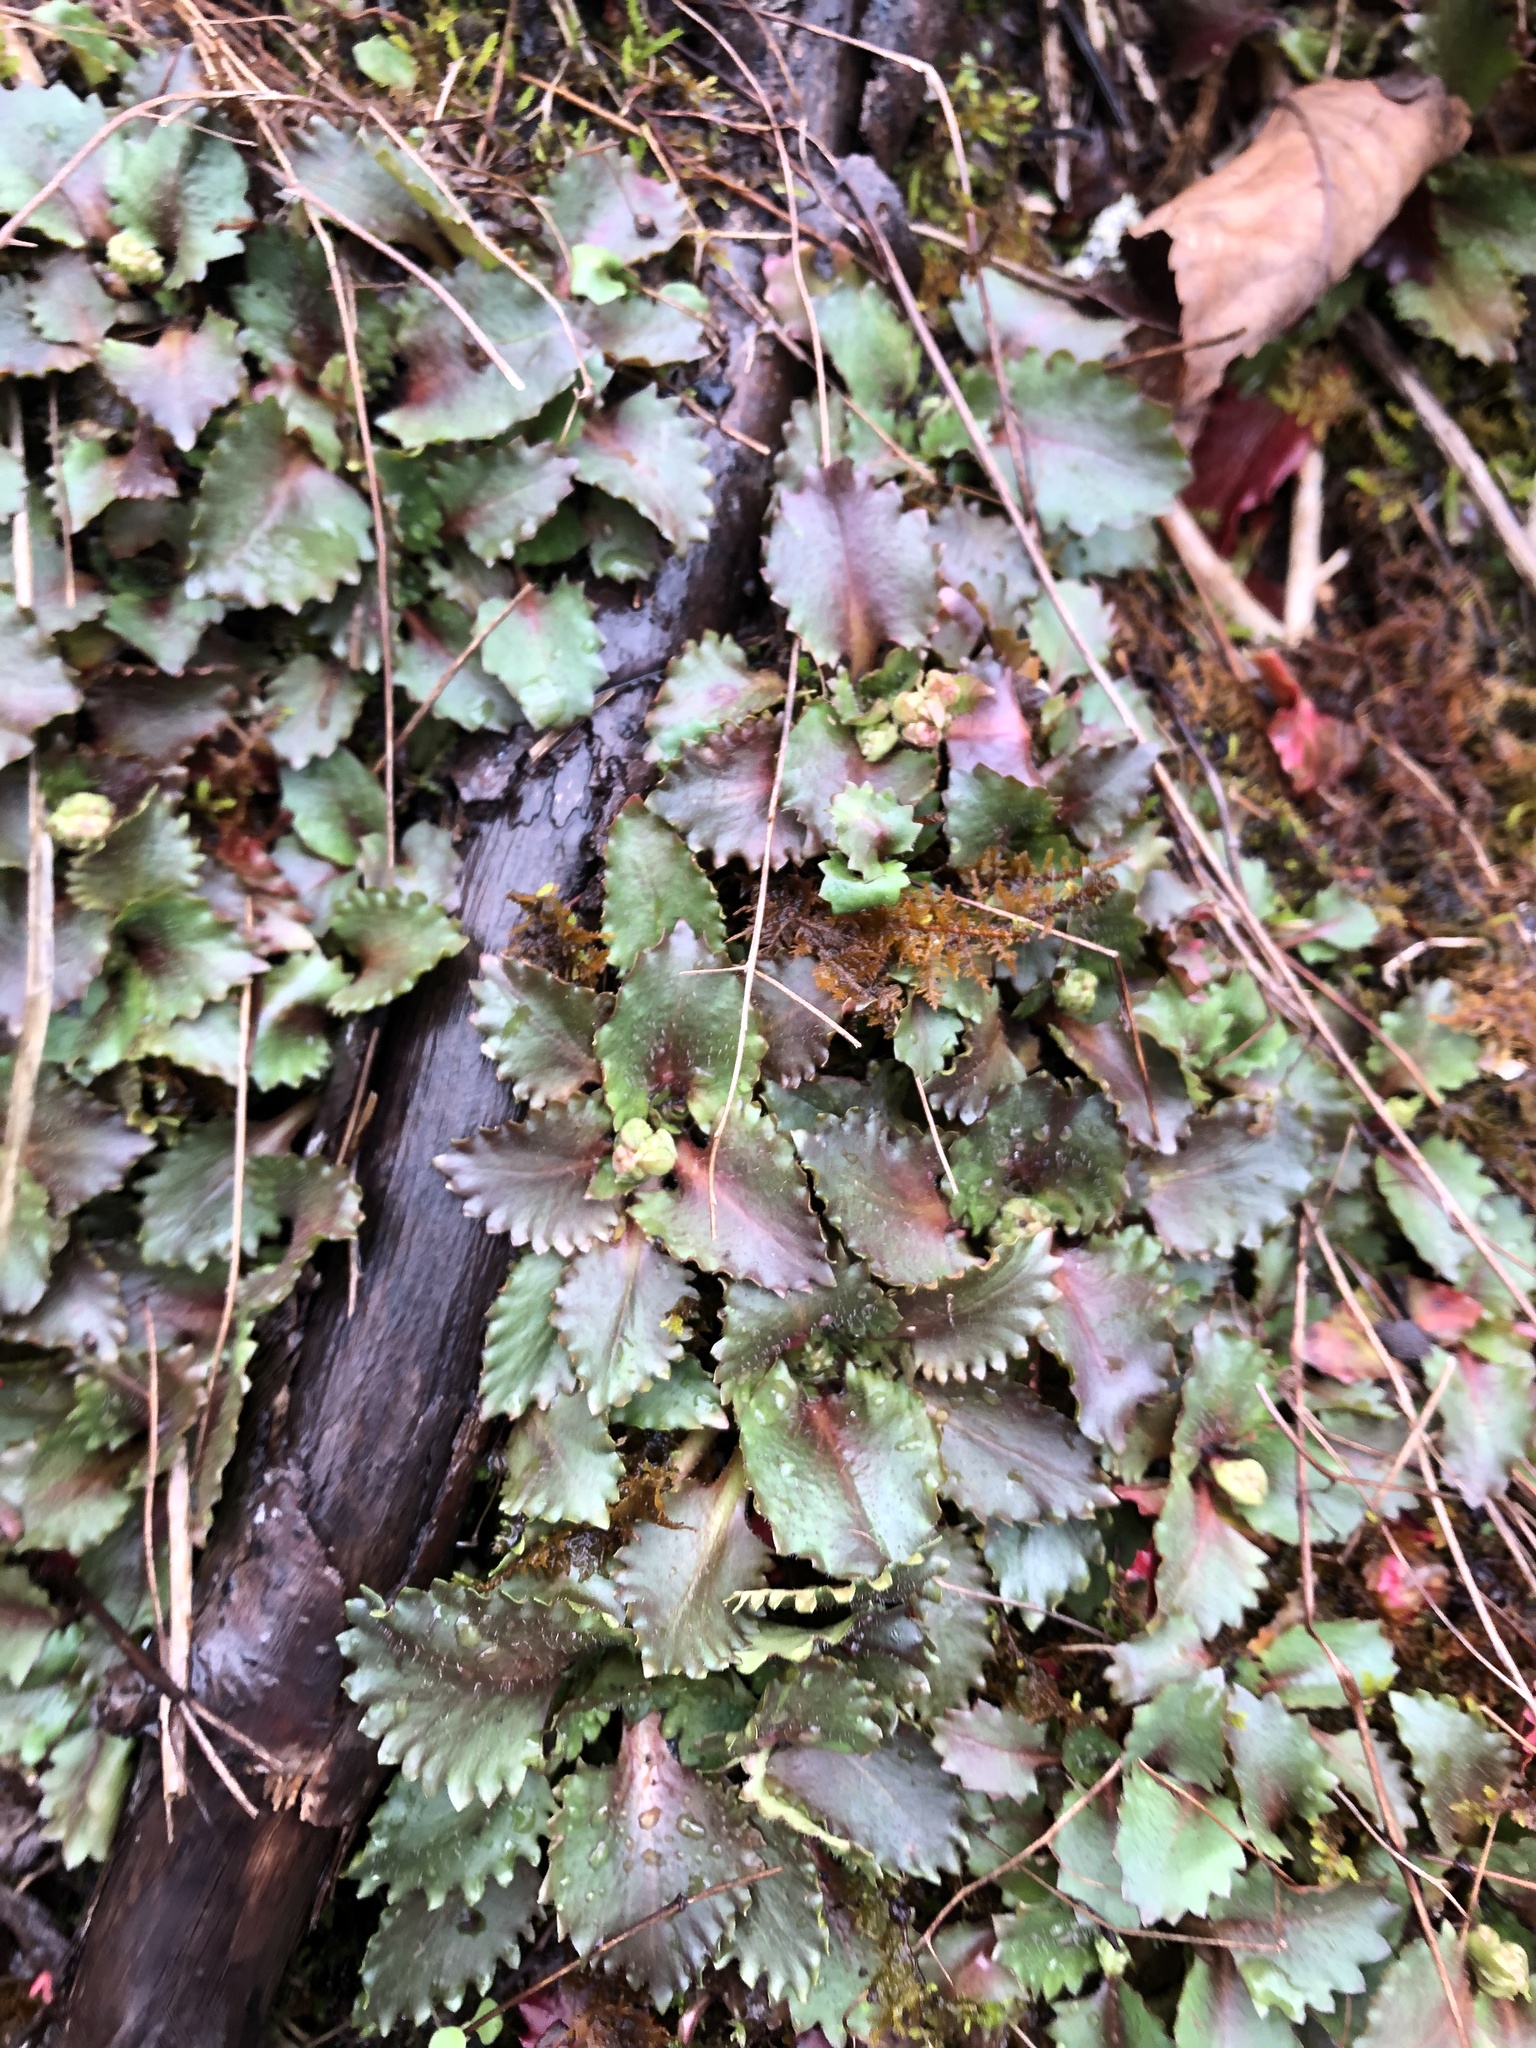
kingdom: Plantae
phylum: Tracheophyta
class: Magnoliopsida
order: Saxifragales
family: Saxifragaceae
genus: Micranthes
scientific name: Micranthes petiolaris
